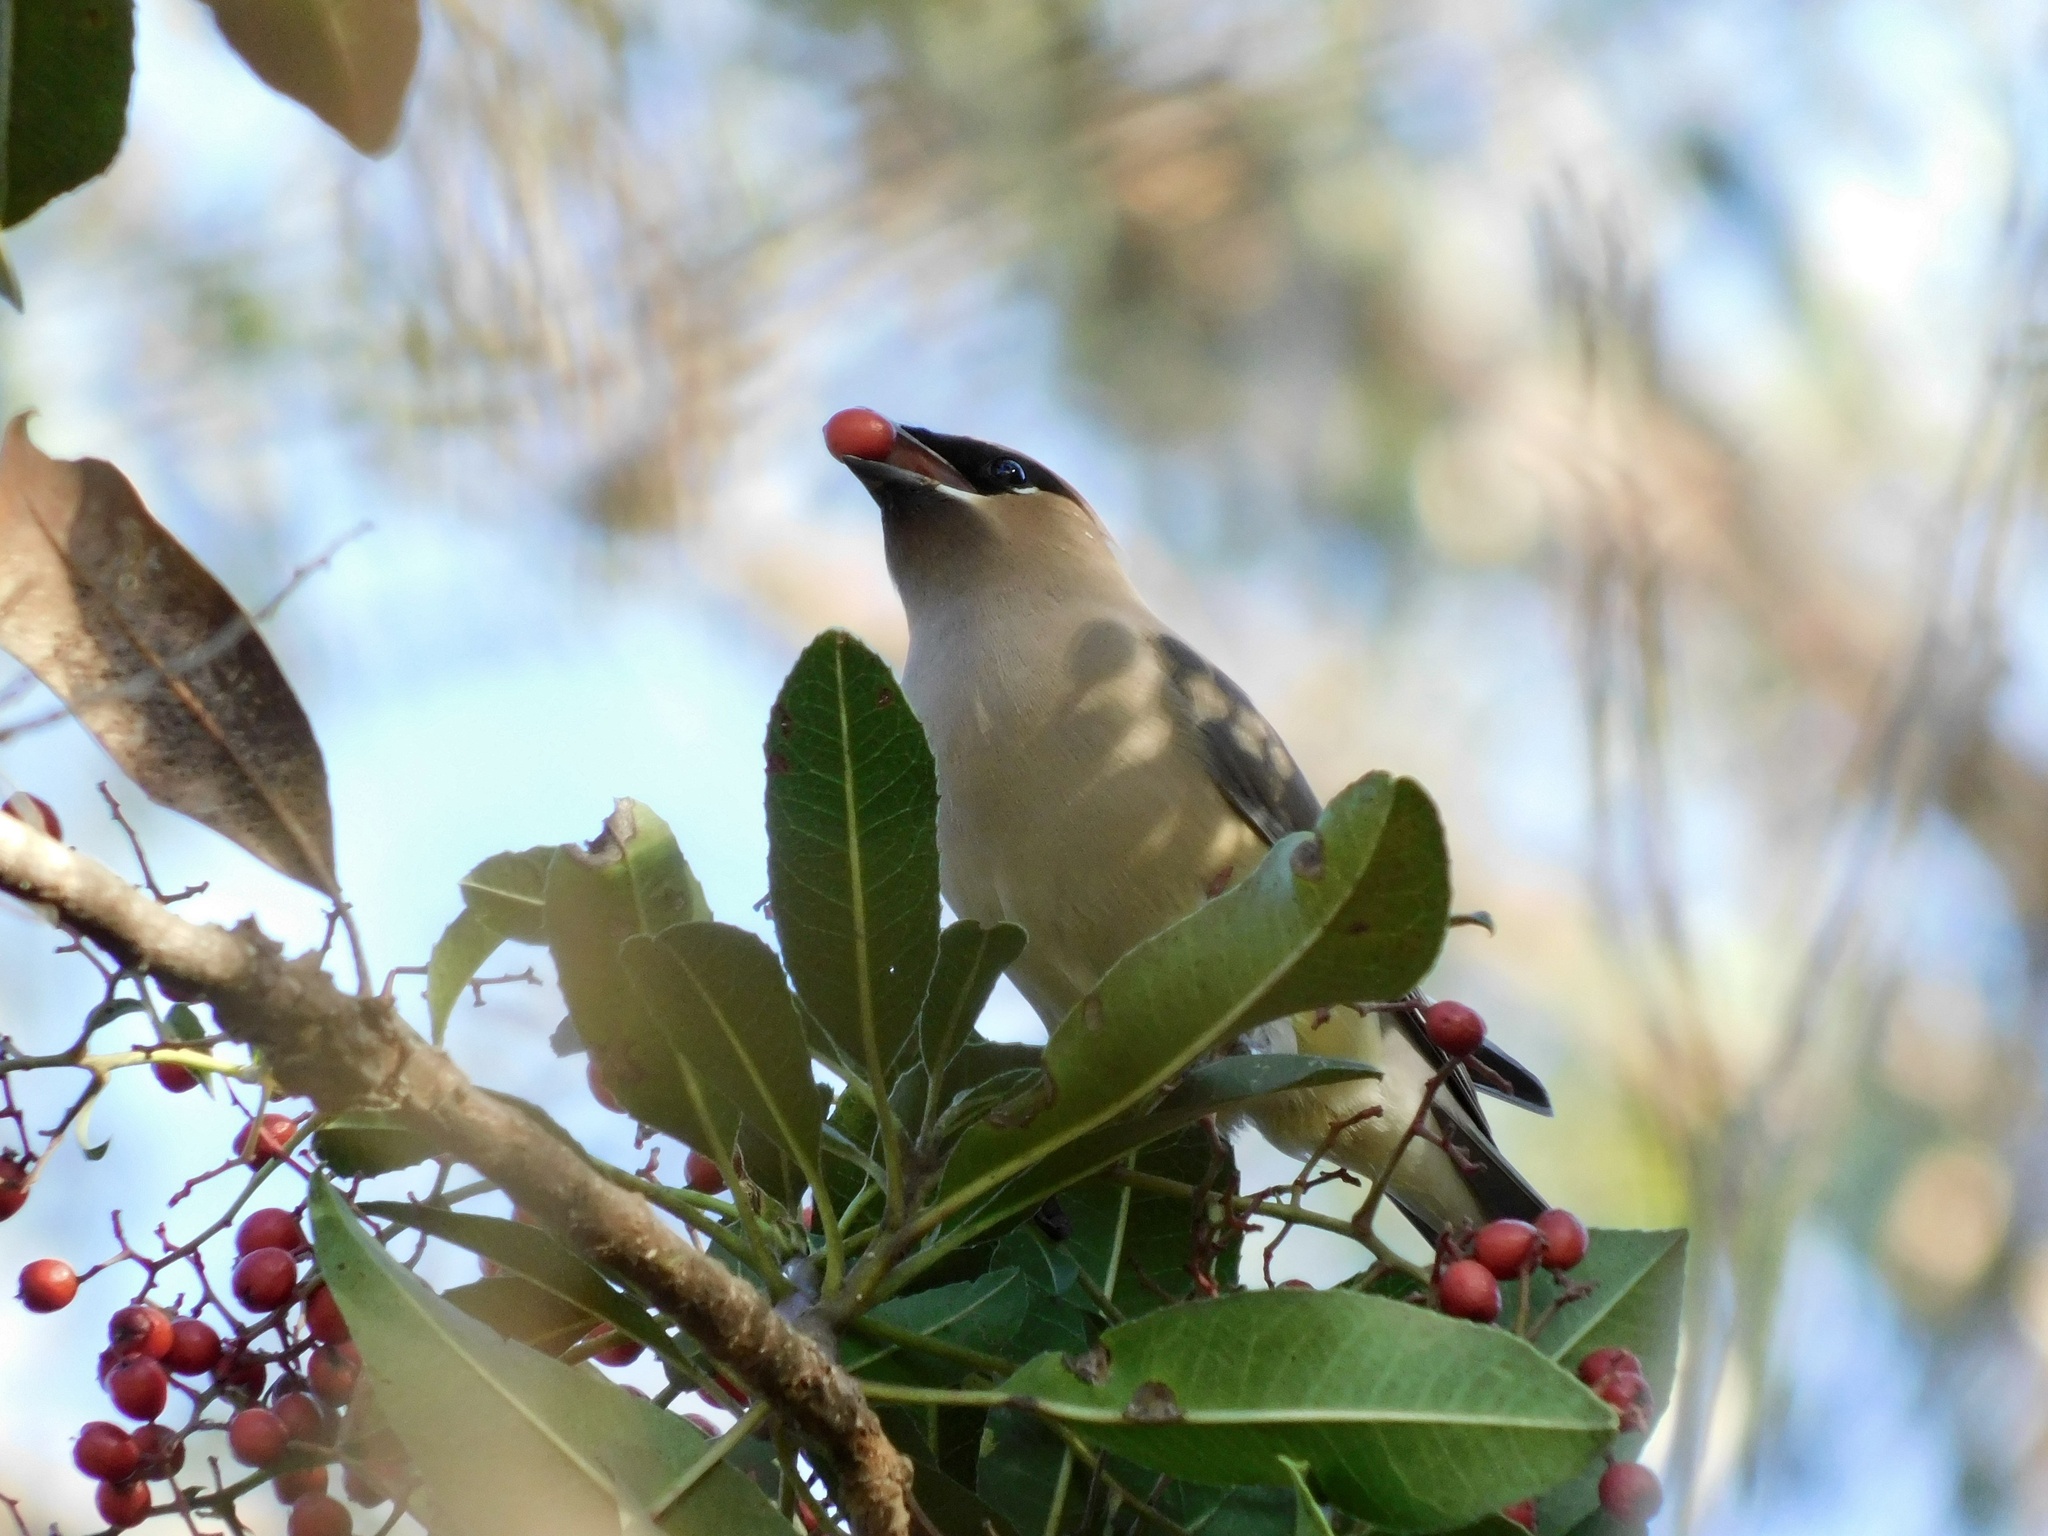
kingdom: Animalia
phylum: Chordata
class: Aves
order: Passeriformes
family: Bombycillidae
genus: Bombycilla
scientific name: Bombycilla cedrorum
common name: Cedar waxwing
